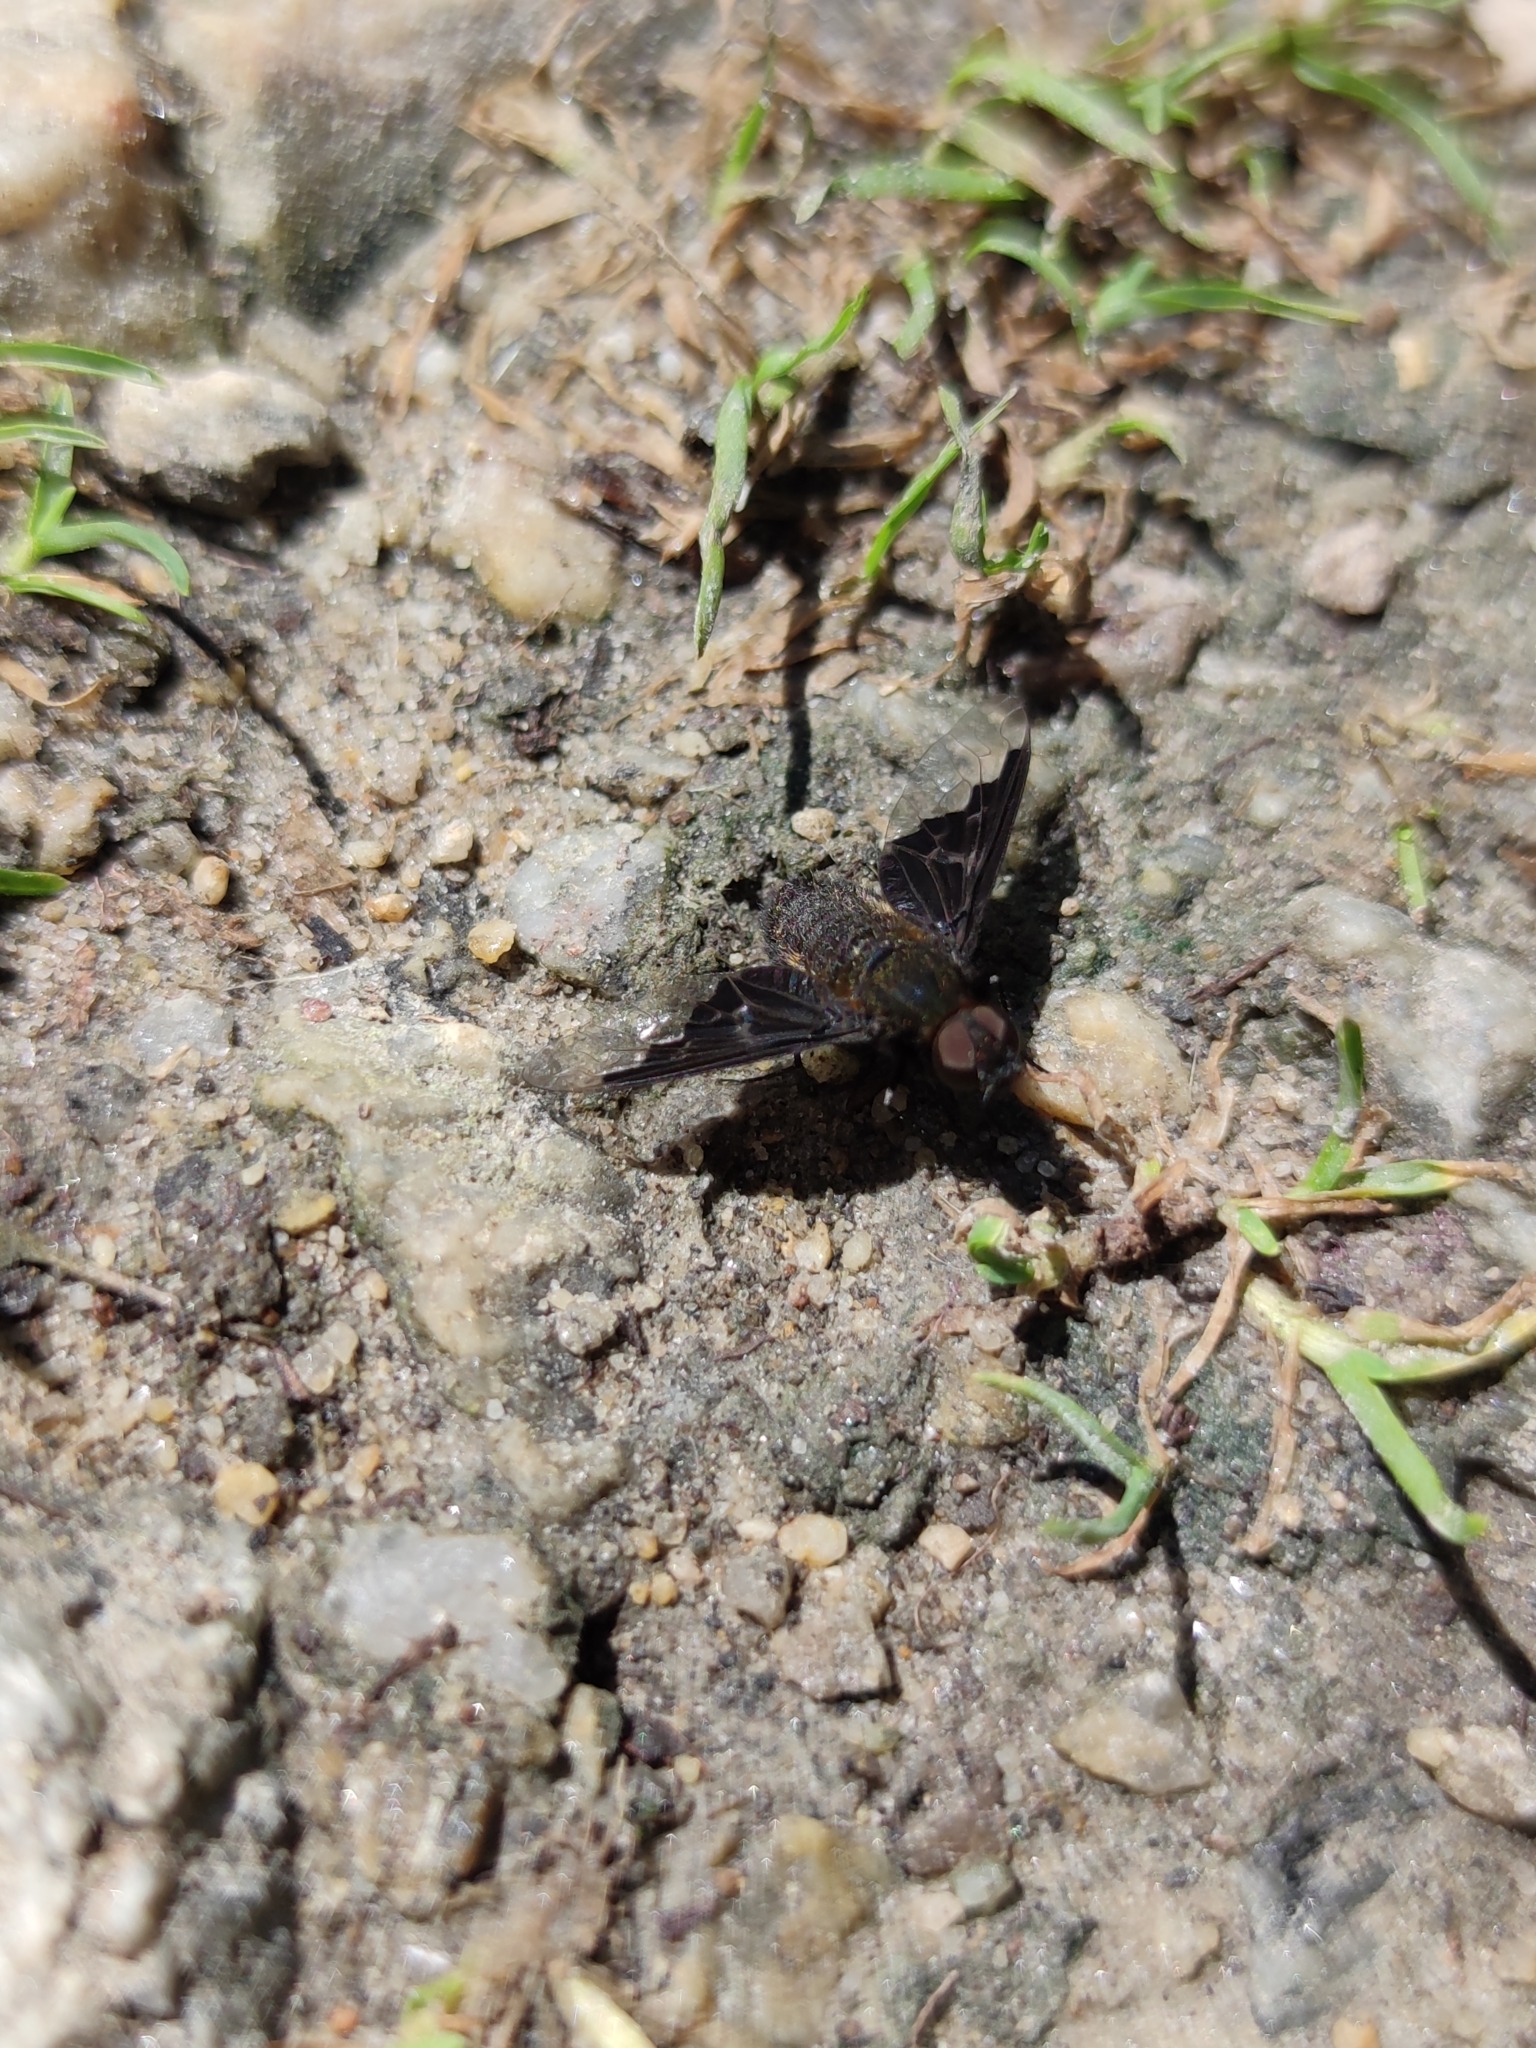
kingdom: Animalia
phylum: Arthropoda
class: Insecta
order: Diptera
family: Bombyliidae
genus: Hemipenthes
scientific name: Hemipenthes morio
